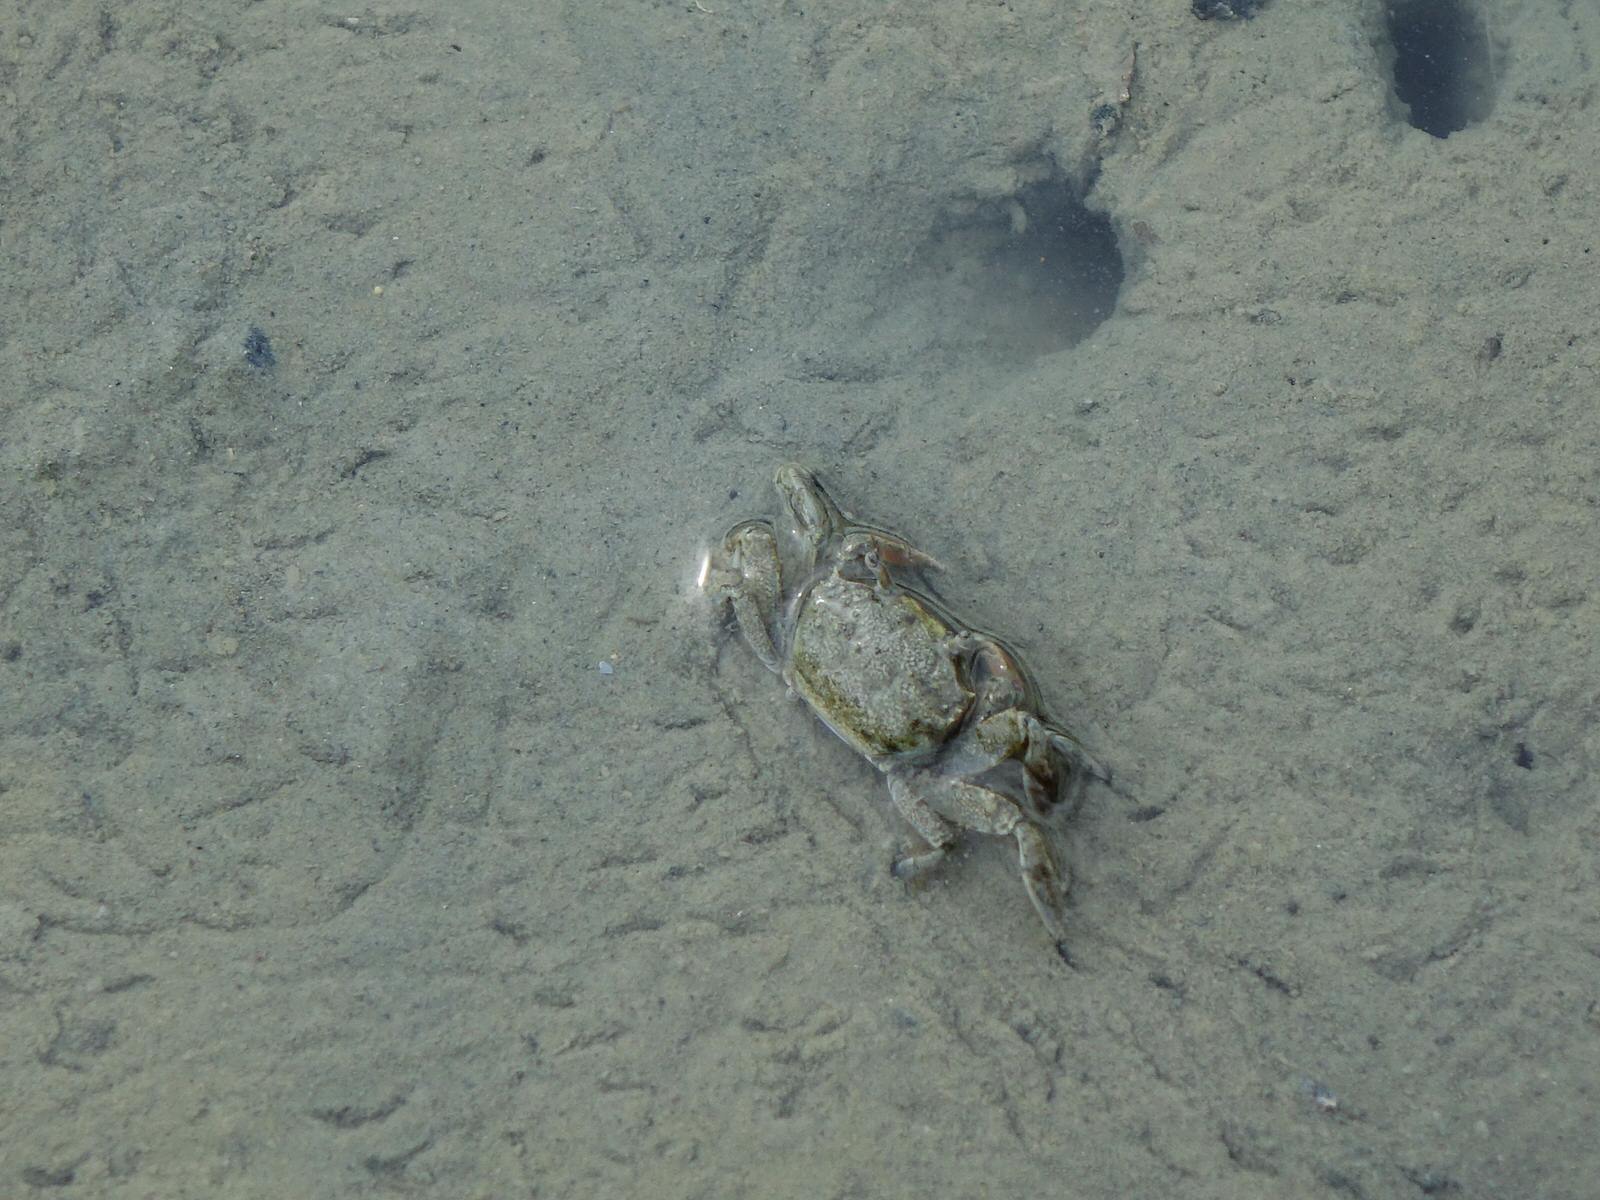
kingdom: Animalia
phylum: Arthropoda
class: Malacostraca
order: Decapoda
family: Varunidae
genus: Austrohelice
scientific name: Austrohelice crassa
